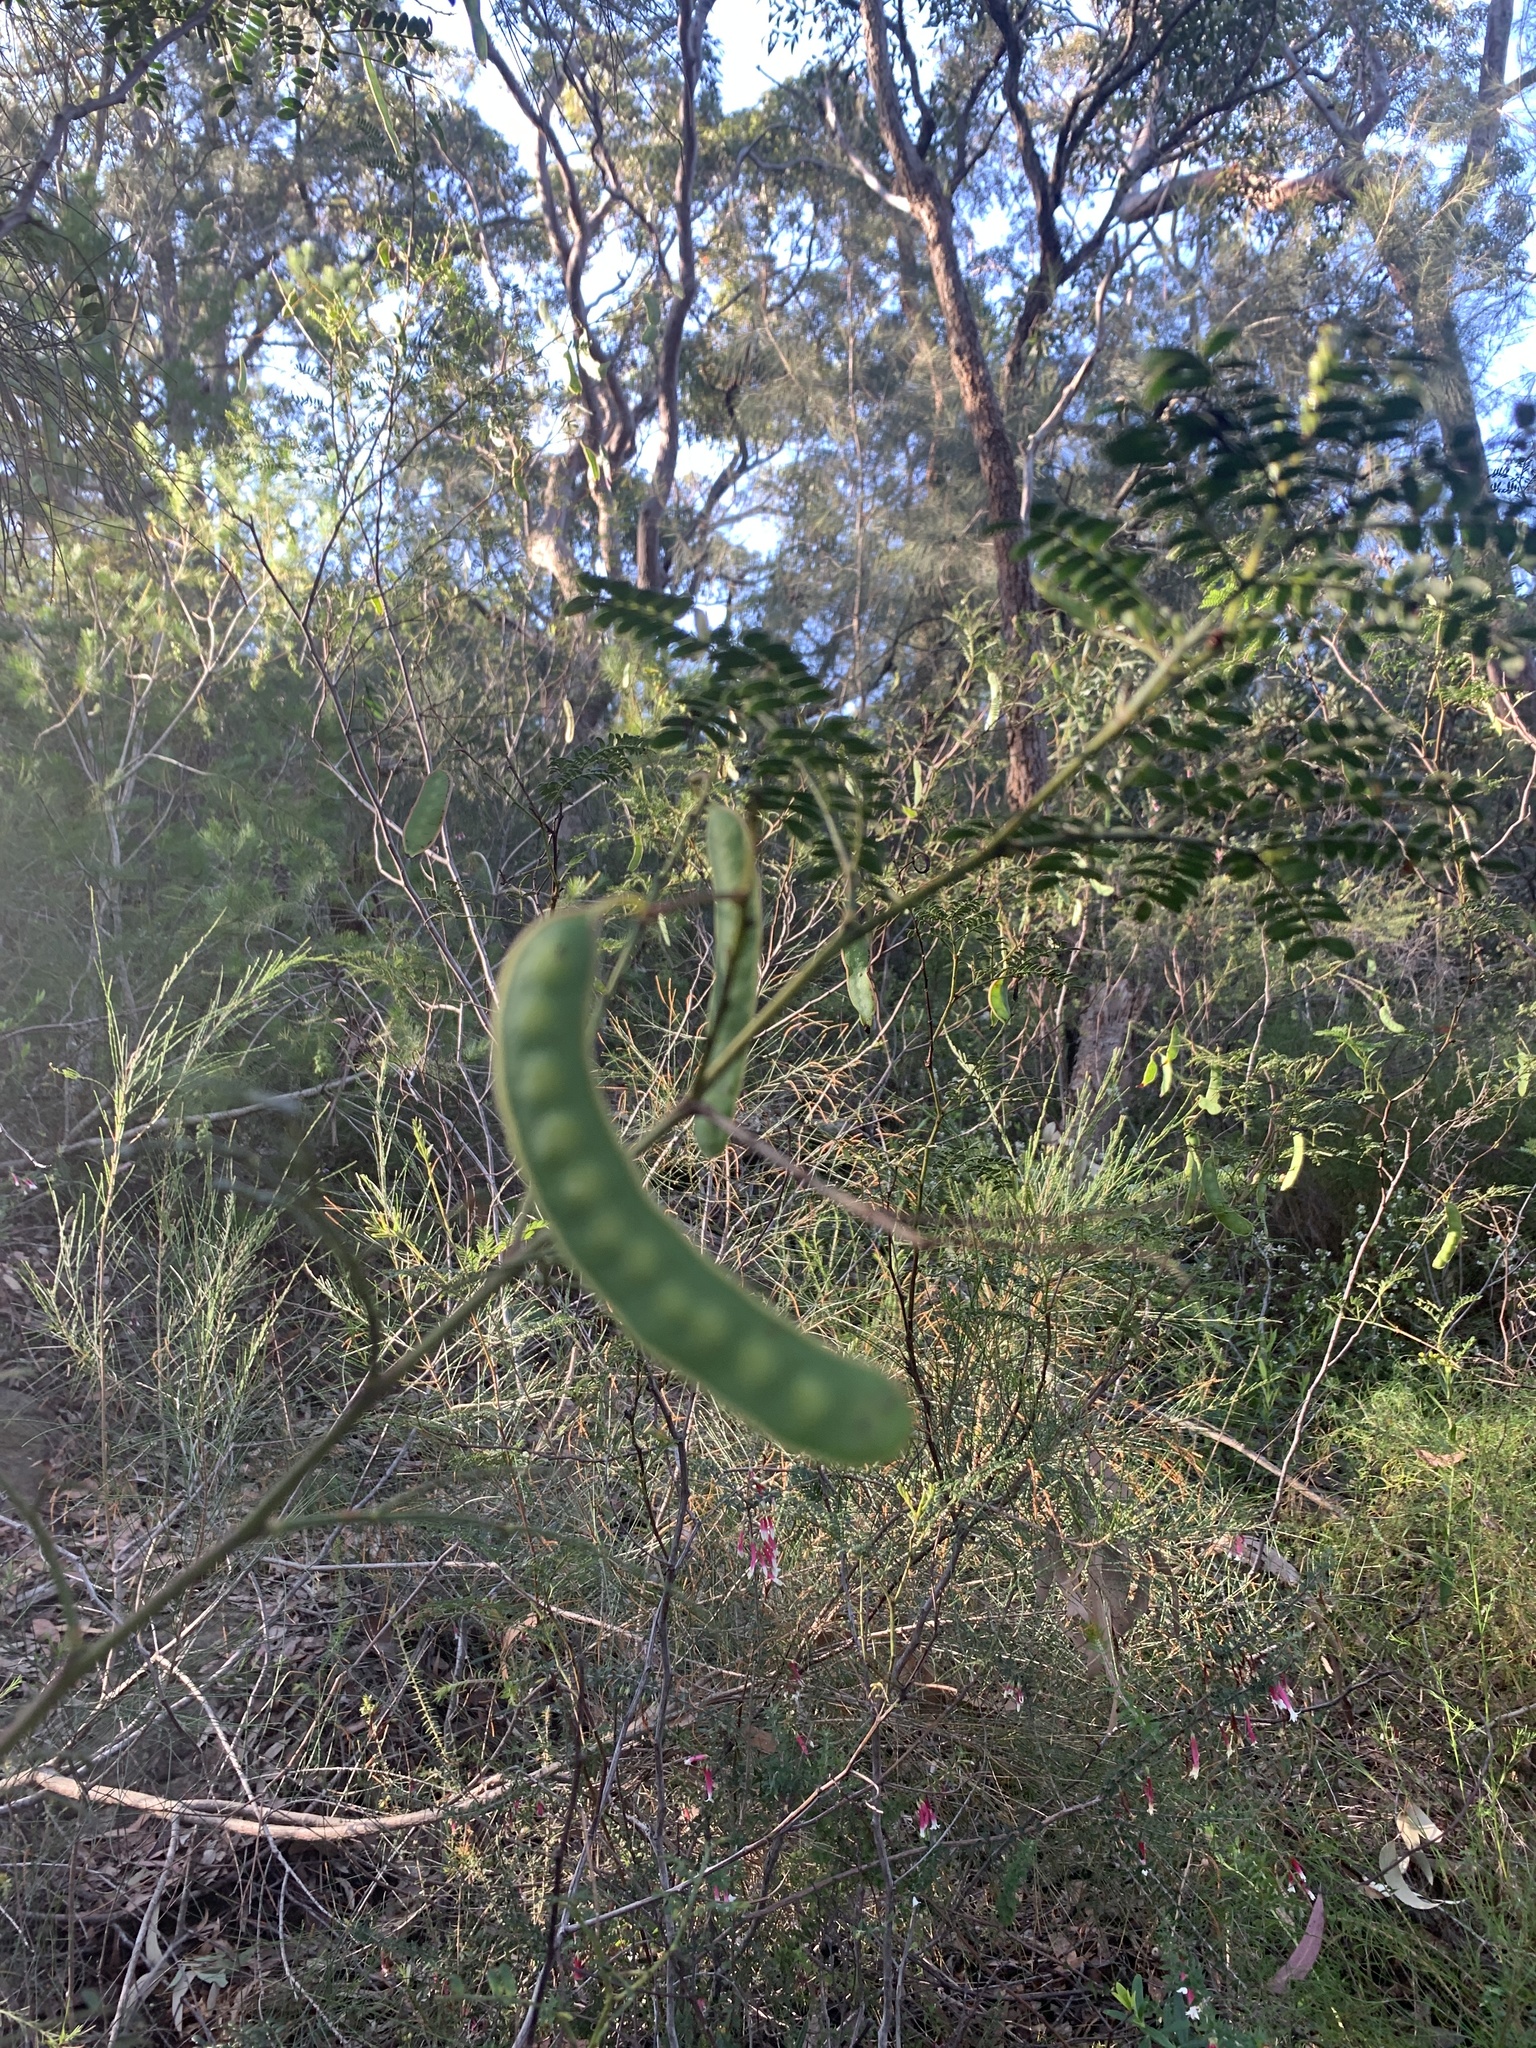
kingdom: Plantae
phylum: Tracheophyta
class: Magnoliopsida
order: Fabales
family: Fabaceae
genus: Acacia
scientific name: Acacia terminalis
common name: Cedar wattle
